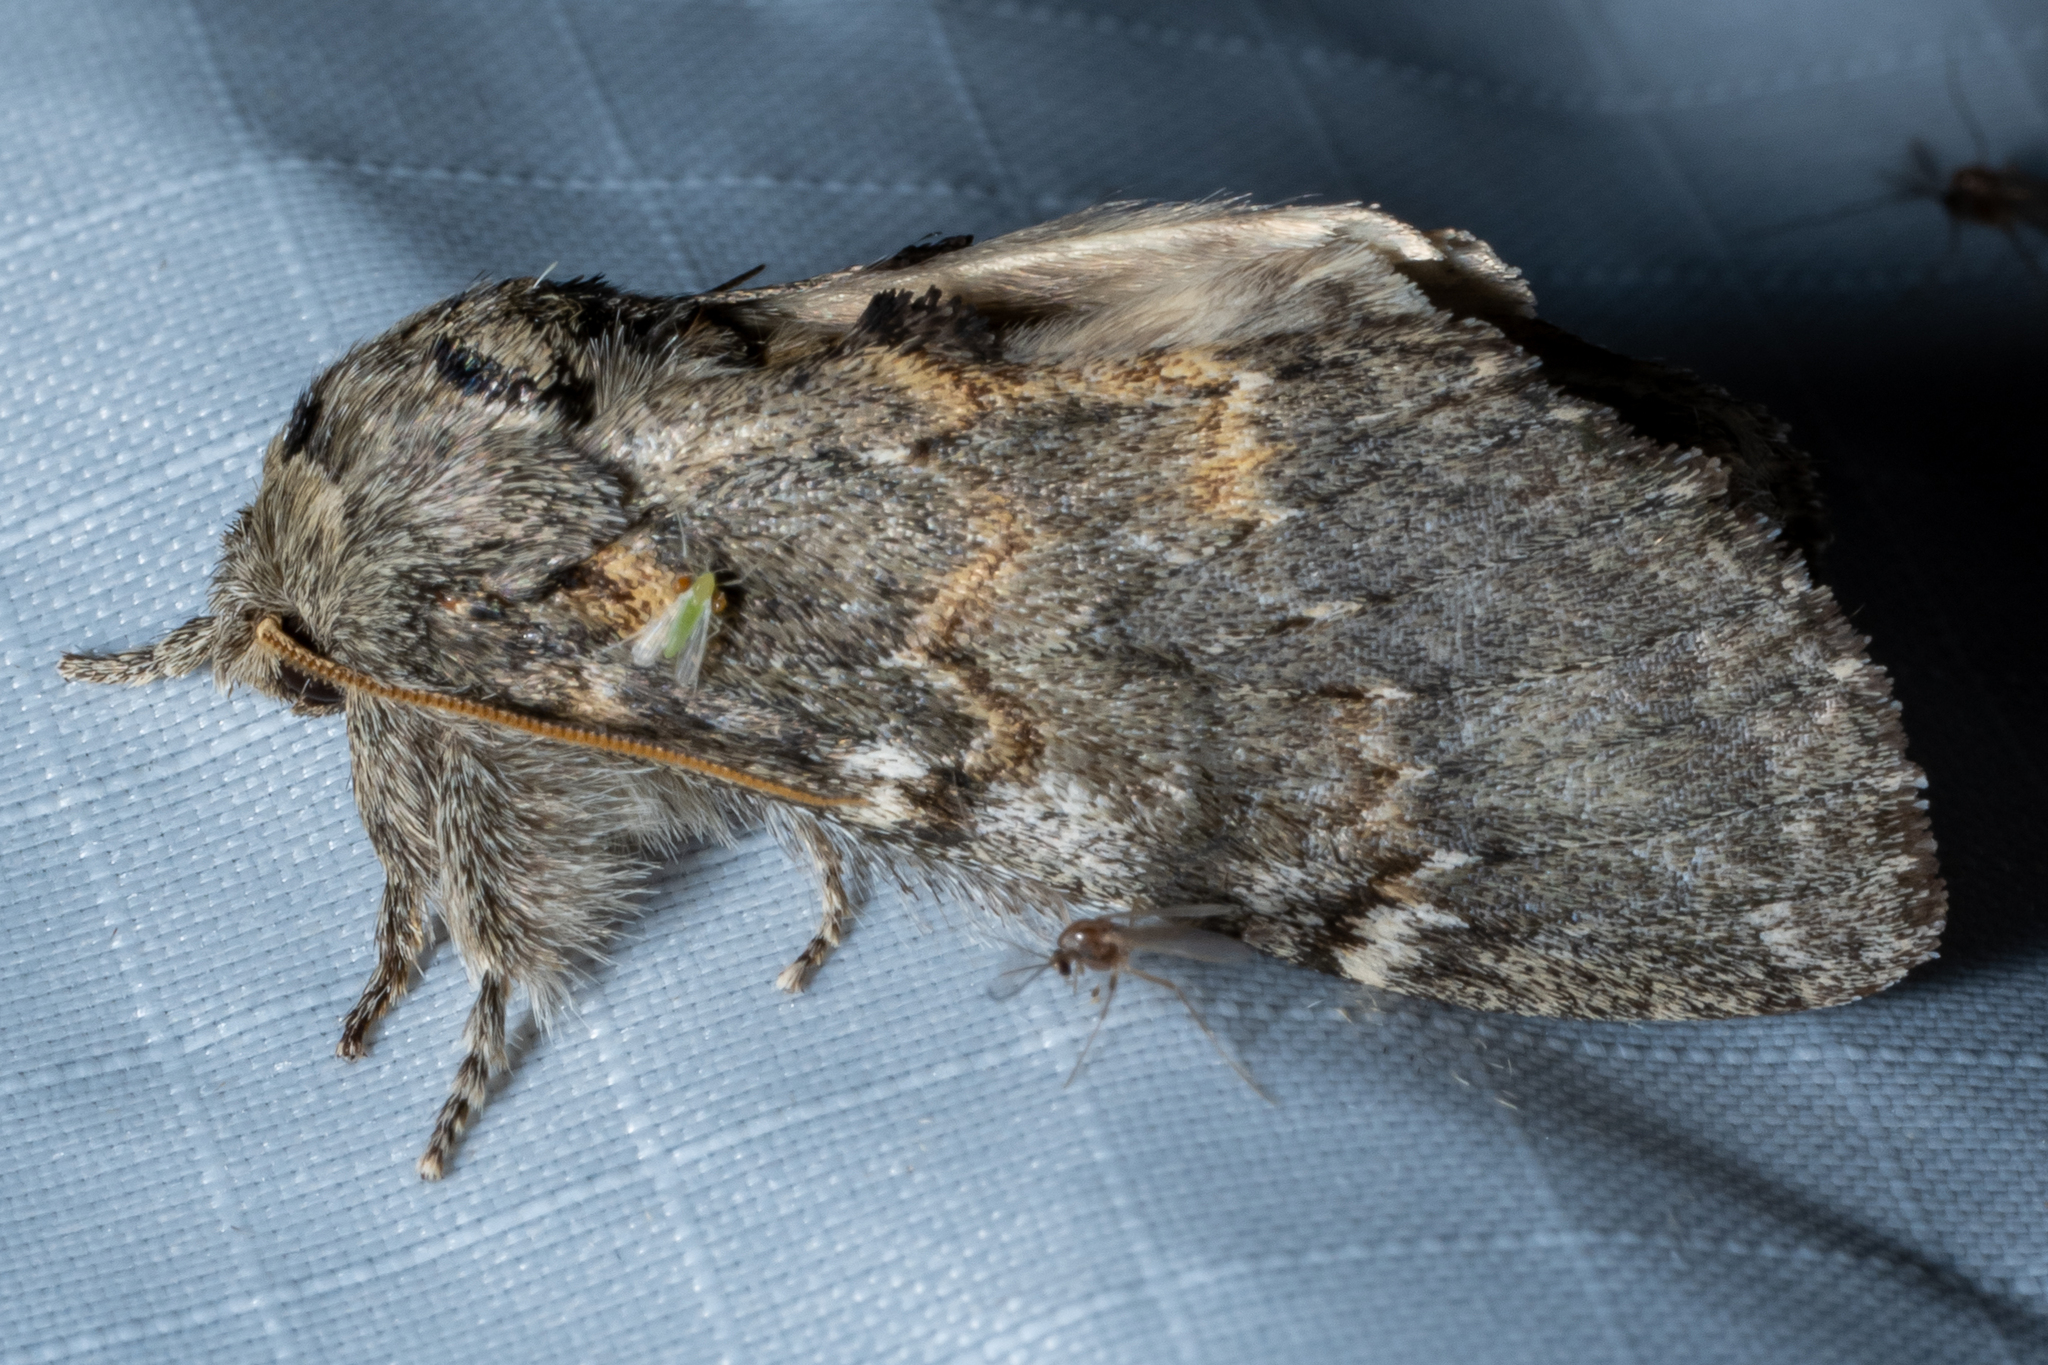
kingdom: Animalia
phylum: Arthropoda
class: Insecta
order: Lepidoptera
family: Notodontidae
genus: Peridea
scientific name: Peridea angulosa
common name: Angulose prominent
